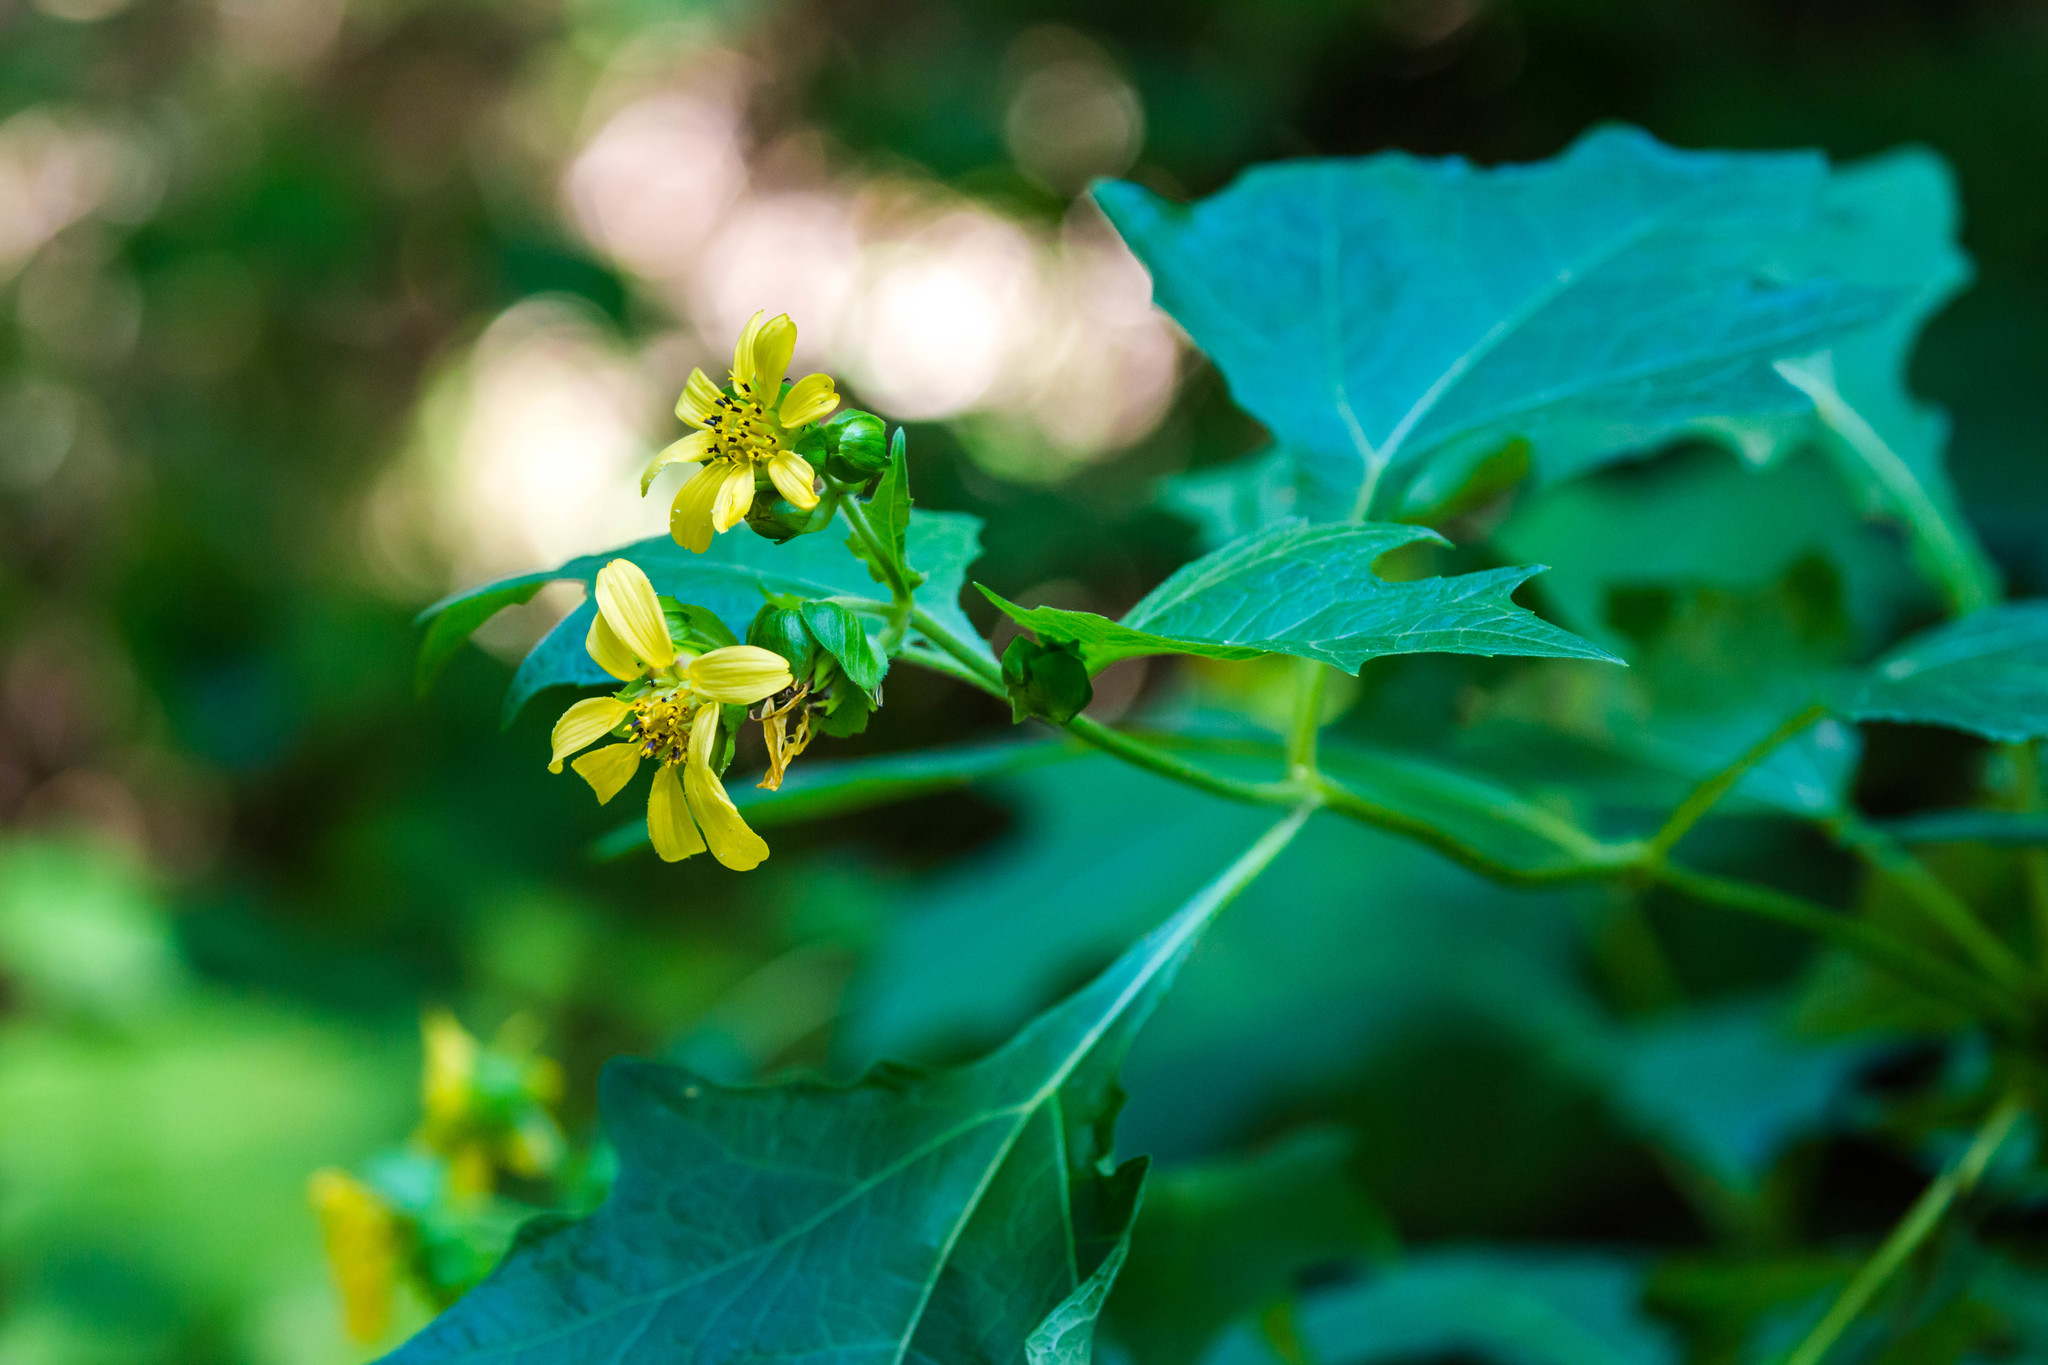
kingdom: Plantae
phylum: Tracheophyta
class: Magnoliopsida
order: Asterales
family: Asteraceae
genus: Smallanthus
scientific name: Smallanthus uvedalia
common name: Bear's-foot
